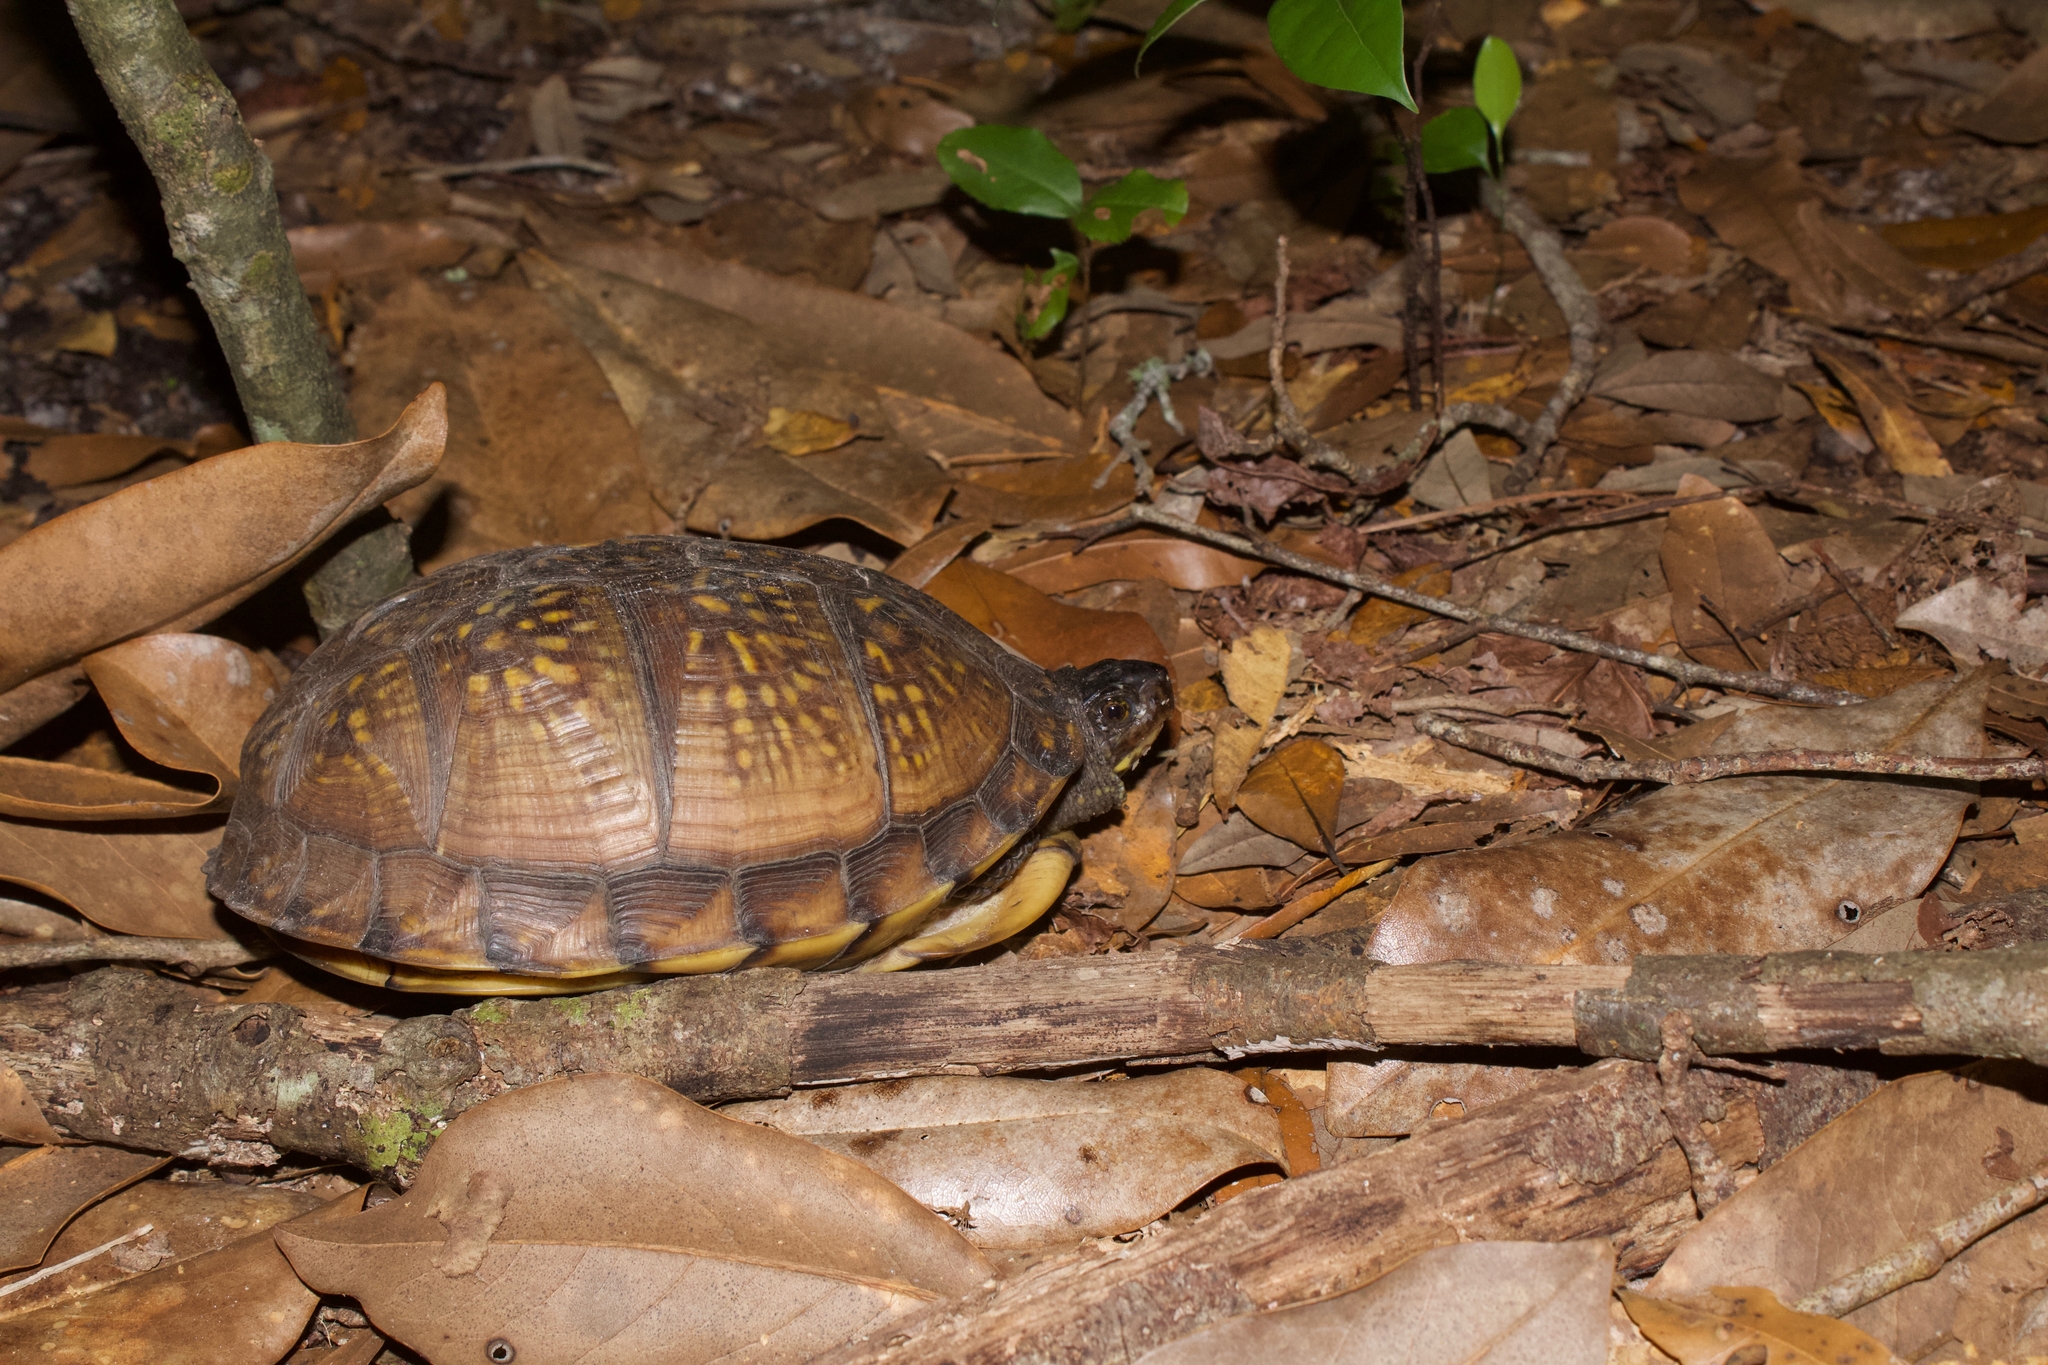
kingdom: Animalia
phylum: Chordata
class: Testudines
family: Emydidae
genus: Terrapene
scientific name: Terrapene carolina
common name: Common box turtle
